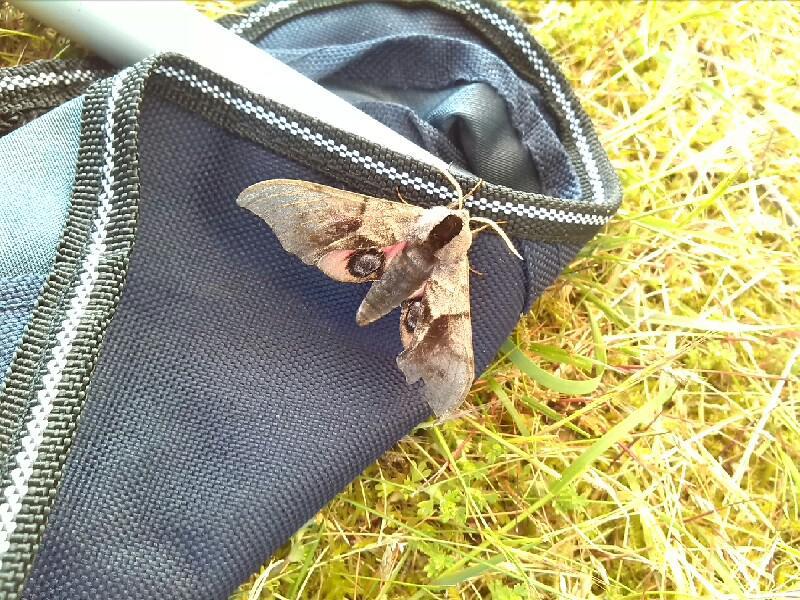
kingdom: Animalia
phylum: Arthropoda
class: Insecta
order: Lepidoptera
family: Sphingidae
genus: Smerinthus
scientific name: Smerinthus ocellata
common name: Eyed hawk-moth
